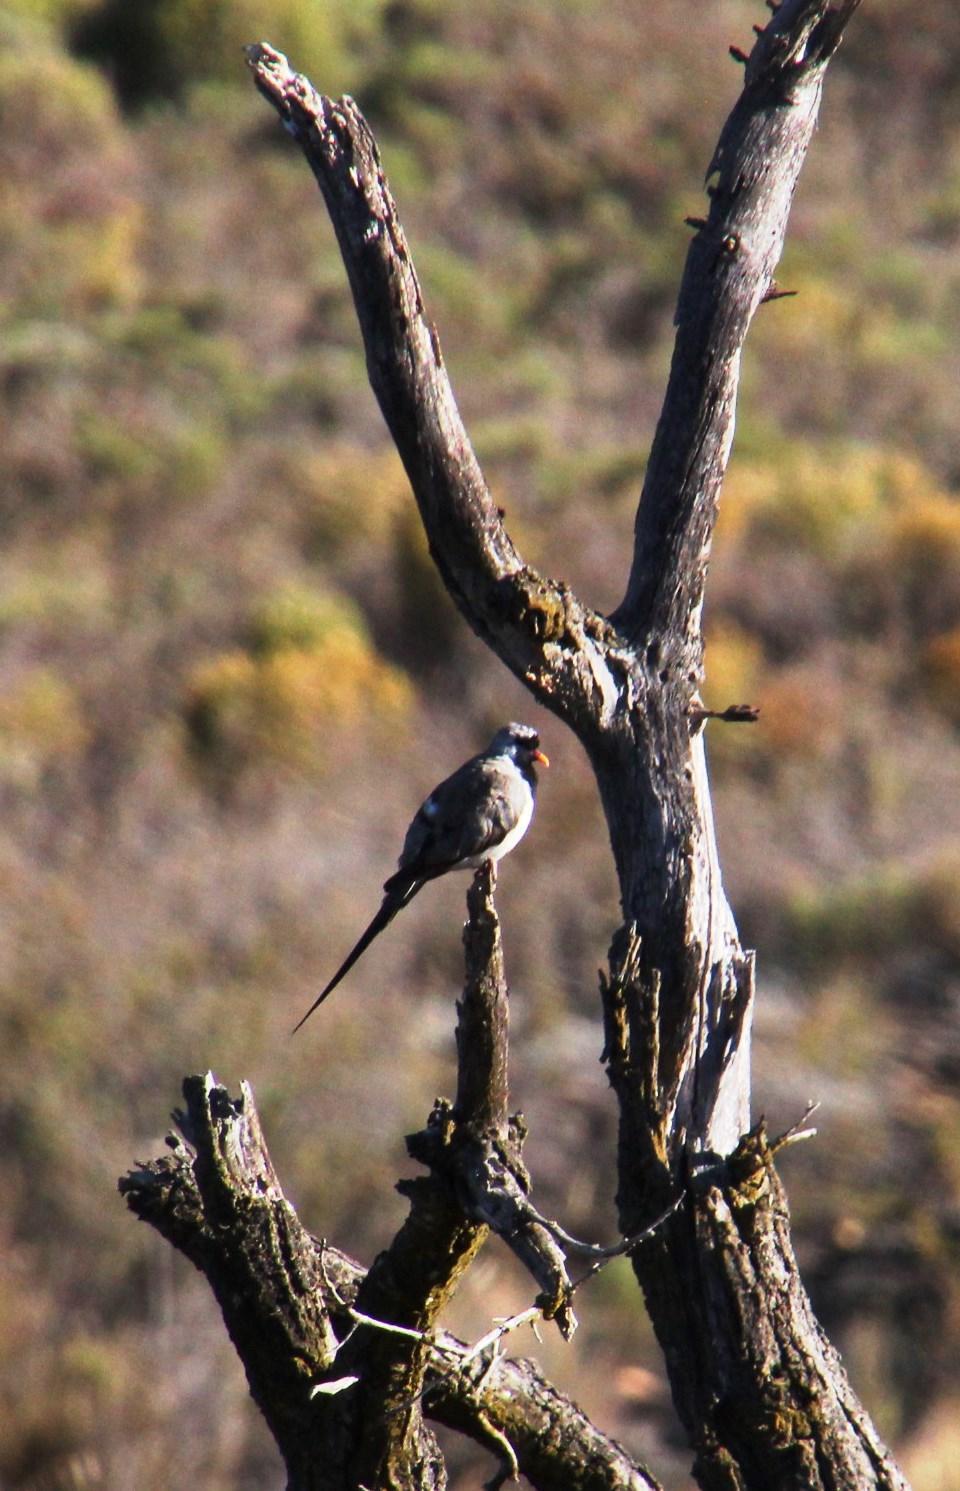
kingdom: Animalia
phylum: Chordata
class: Aves
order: Columbiformes
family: Columbidae
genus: Oena
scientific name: Oena capensis
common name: Namaqua dove
